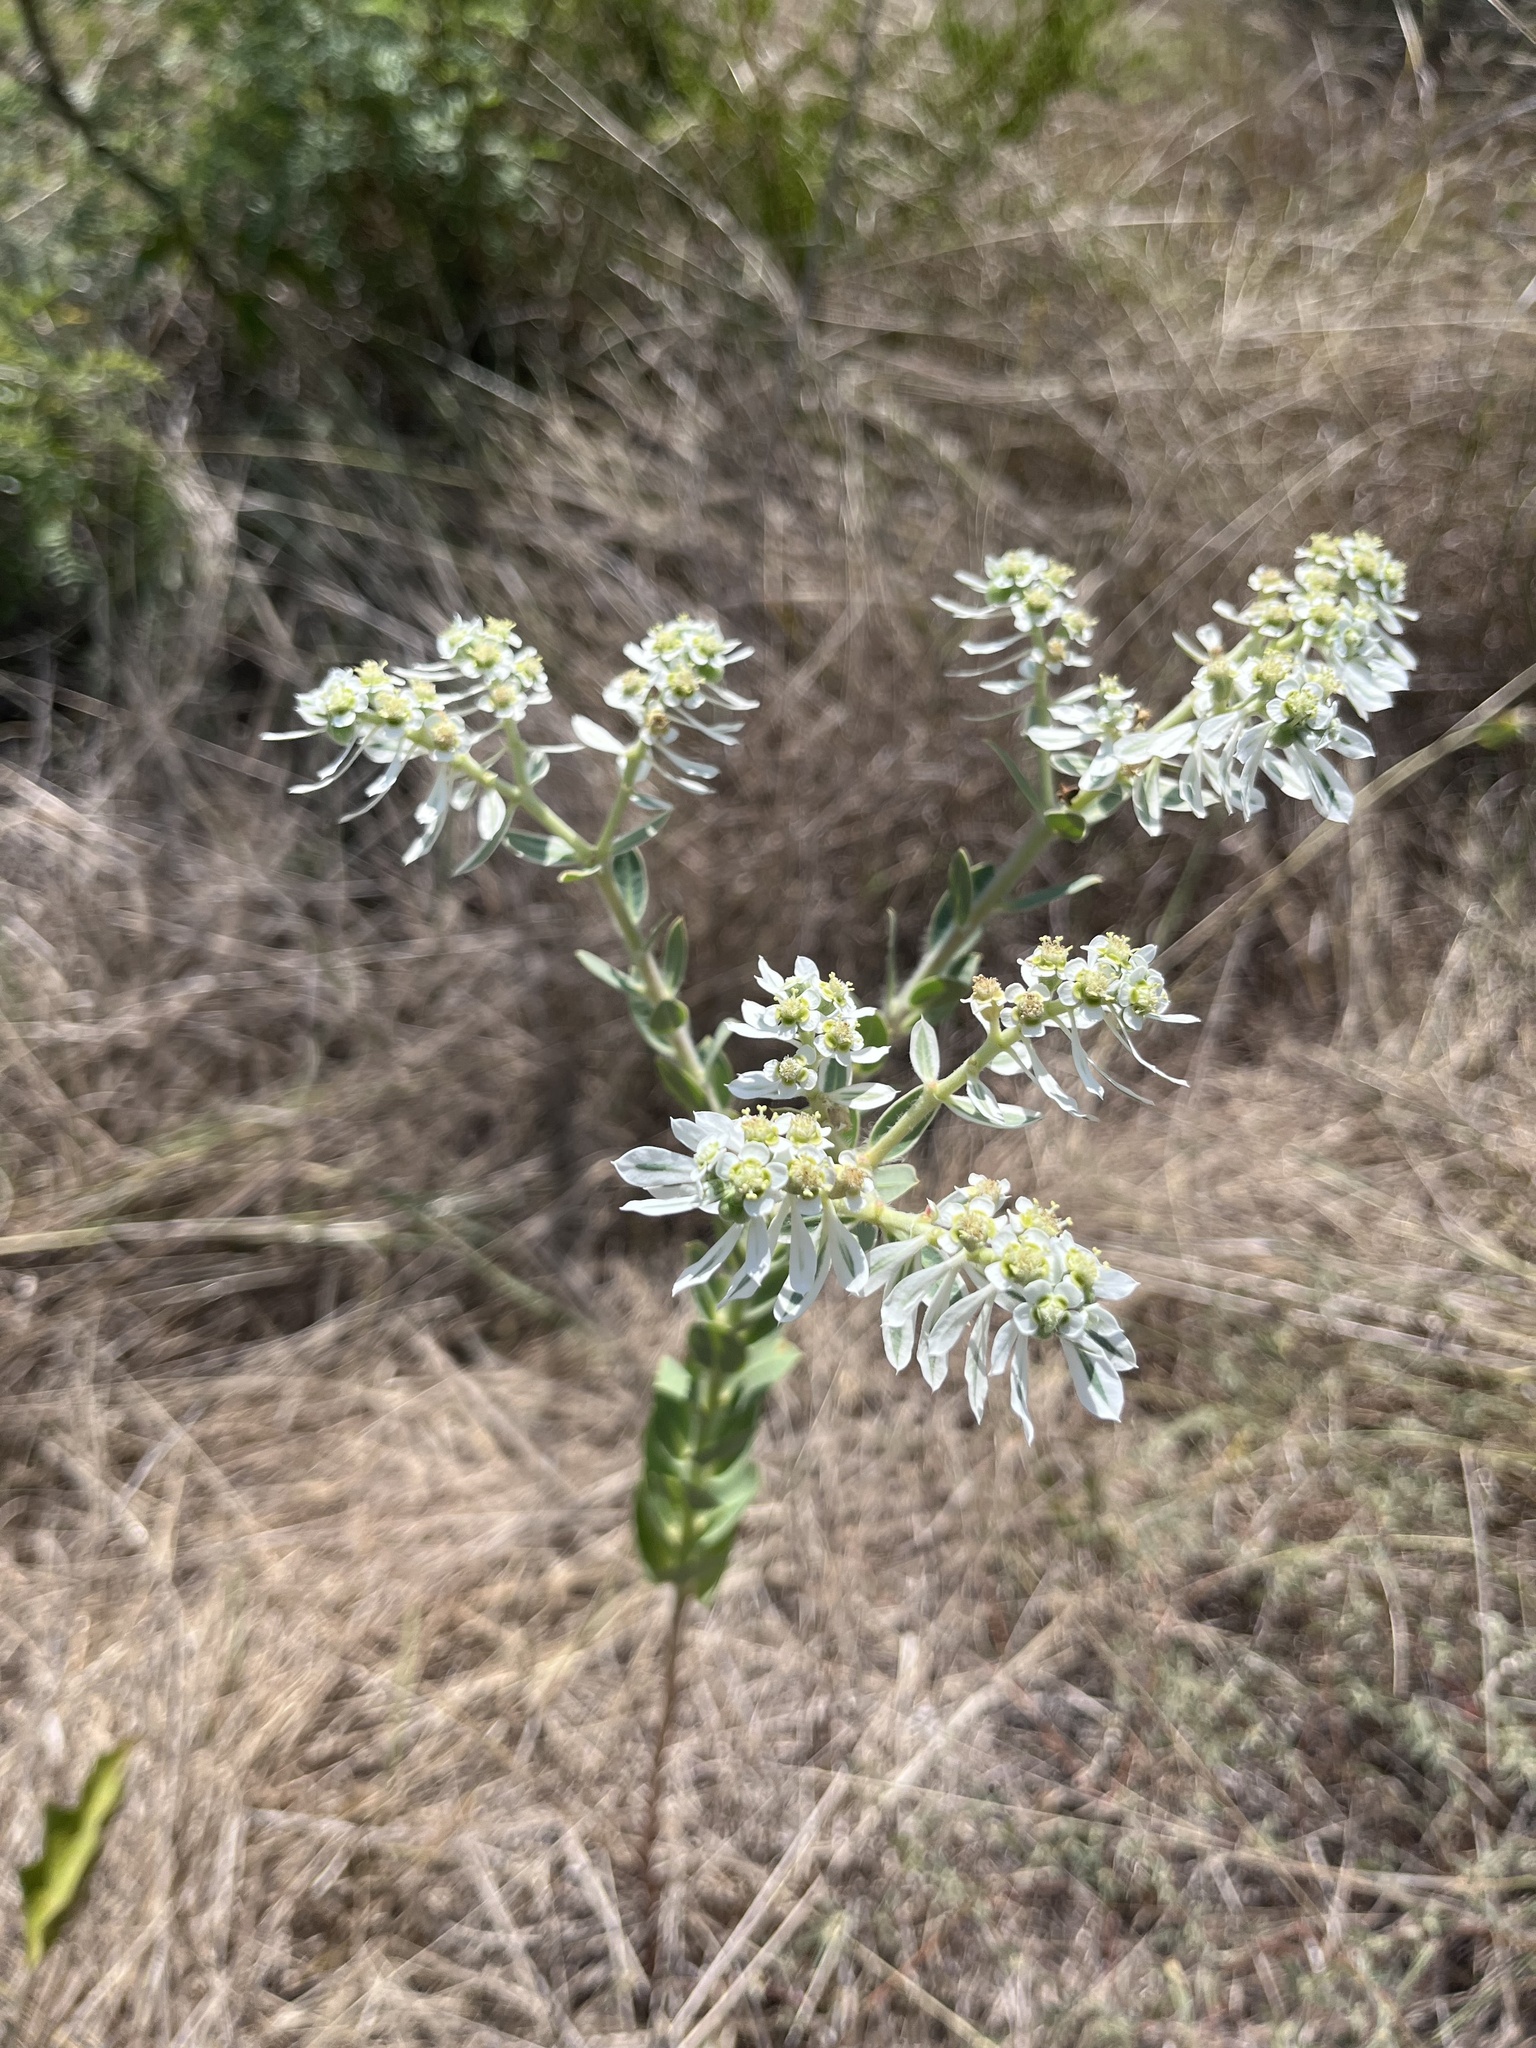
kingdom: Plantae
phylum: Tracheophyta
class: Magnoliopsida
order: Malpighiales
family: Euphorbiaceae
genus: Euphorbia
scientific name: Euphorbia marginata
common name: Ghostweed
